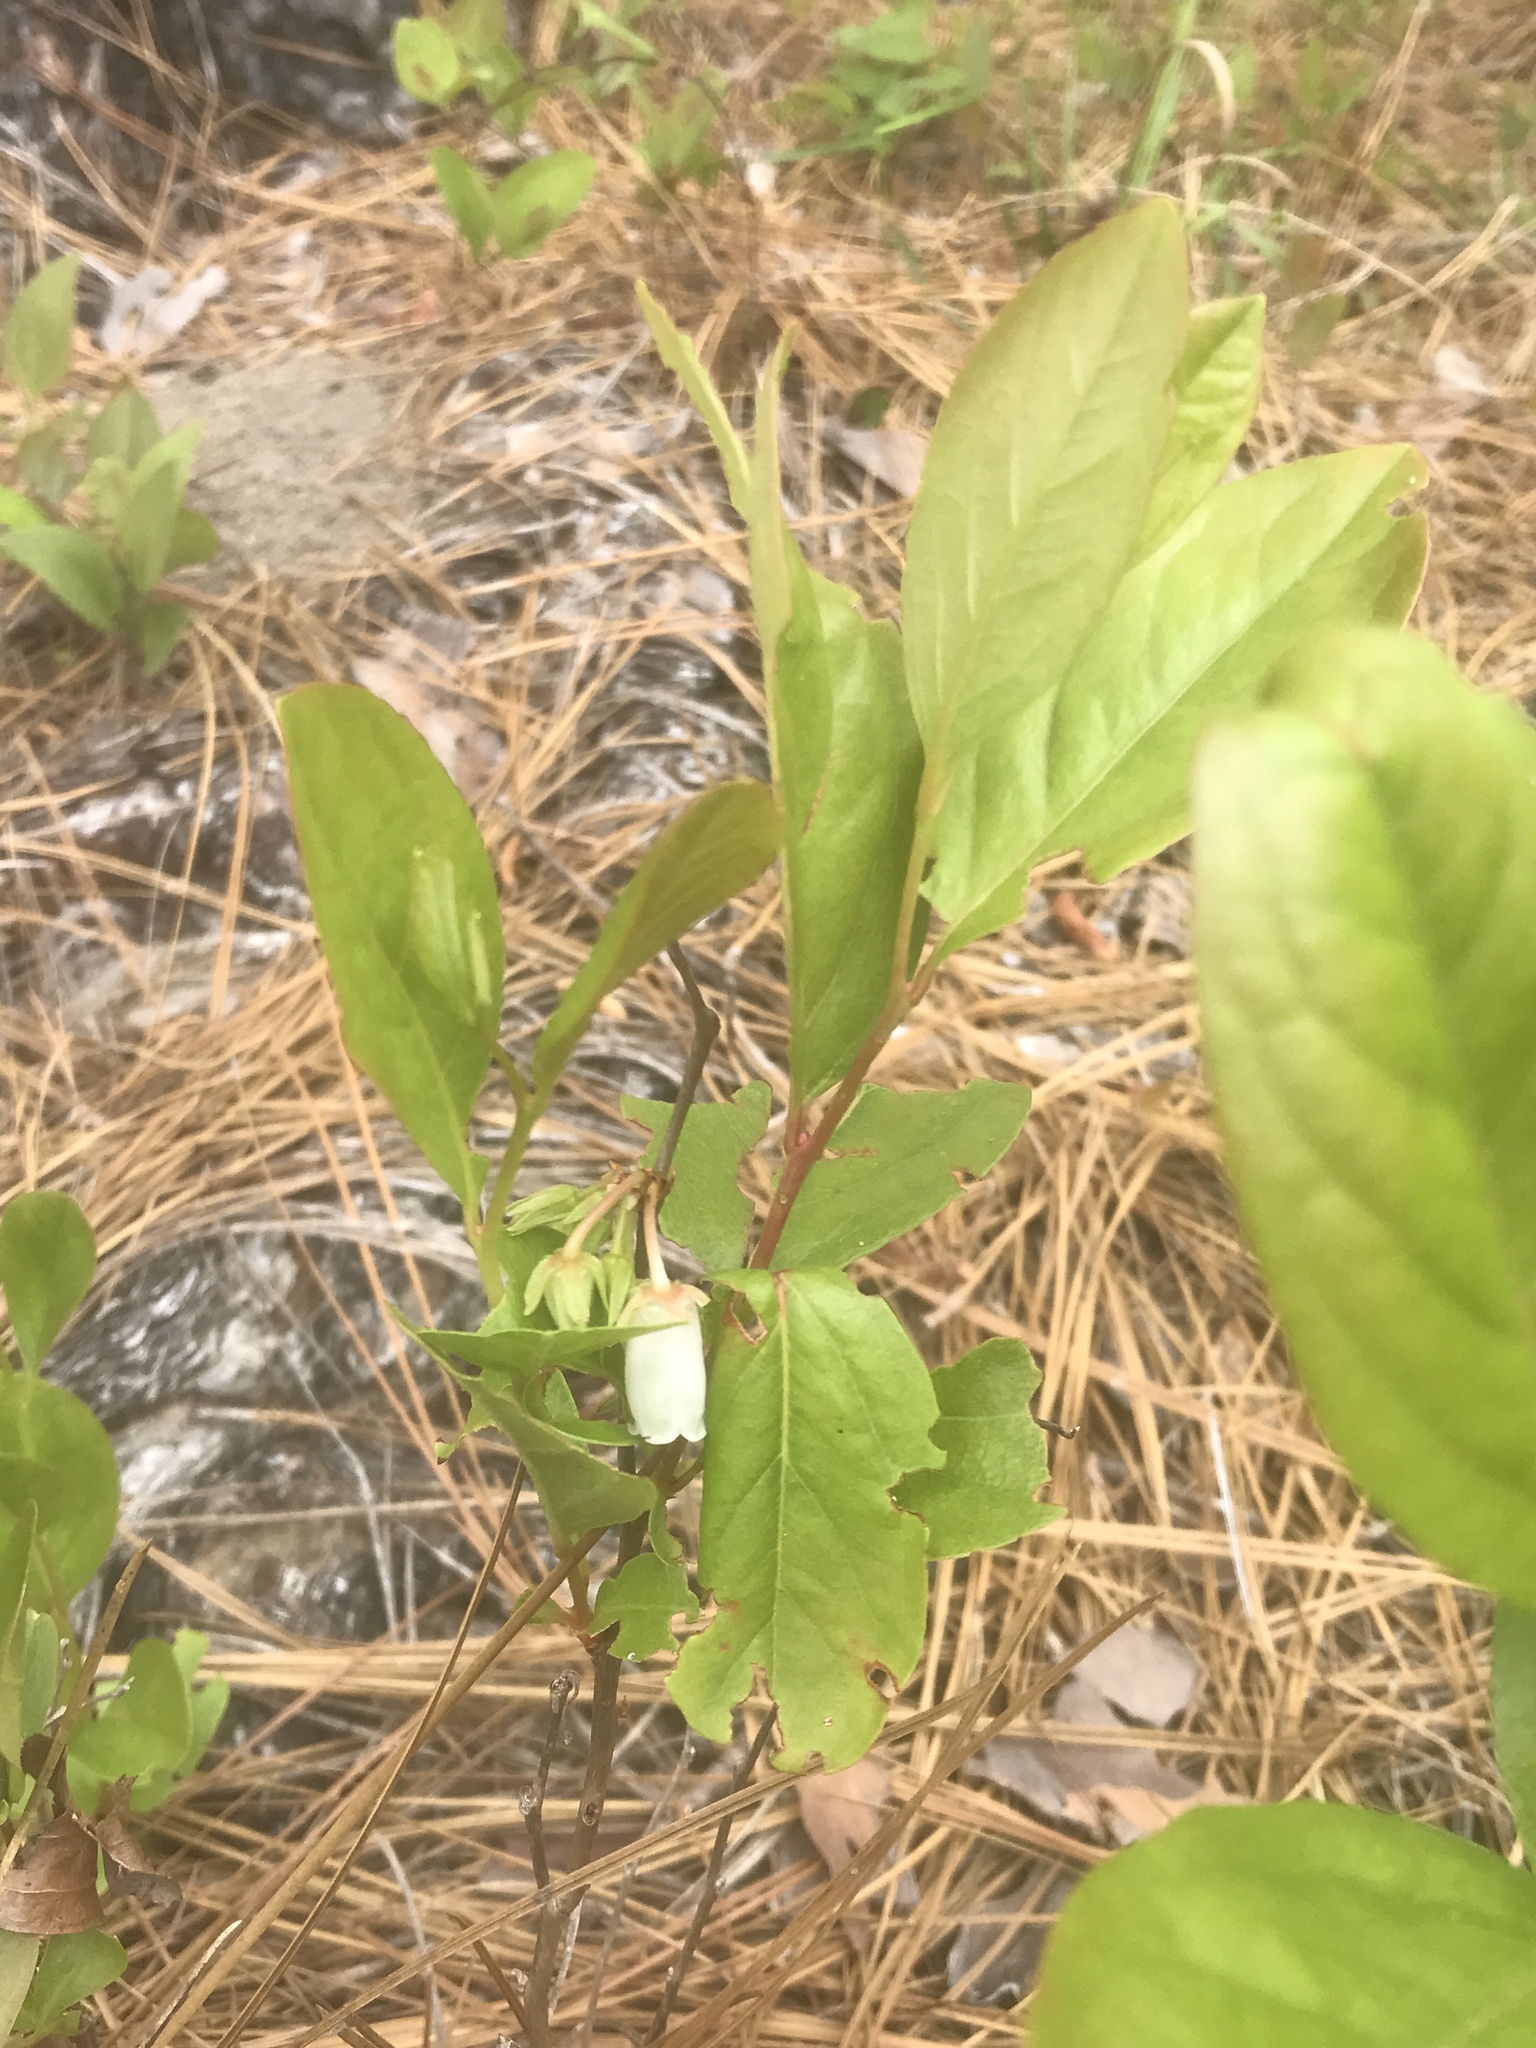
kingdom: Plantae
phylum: Tracheophyta
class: Magnoliopsida
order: Ericales
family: Ericaceae
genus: Lyonia
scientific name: Lyonia mariana
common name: Staggerbush
